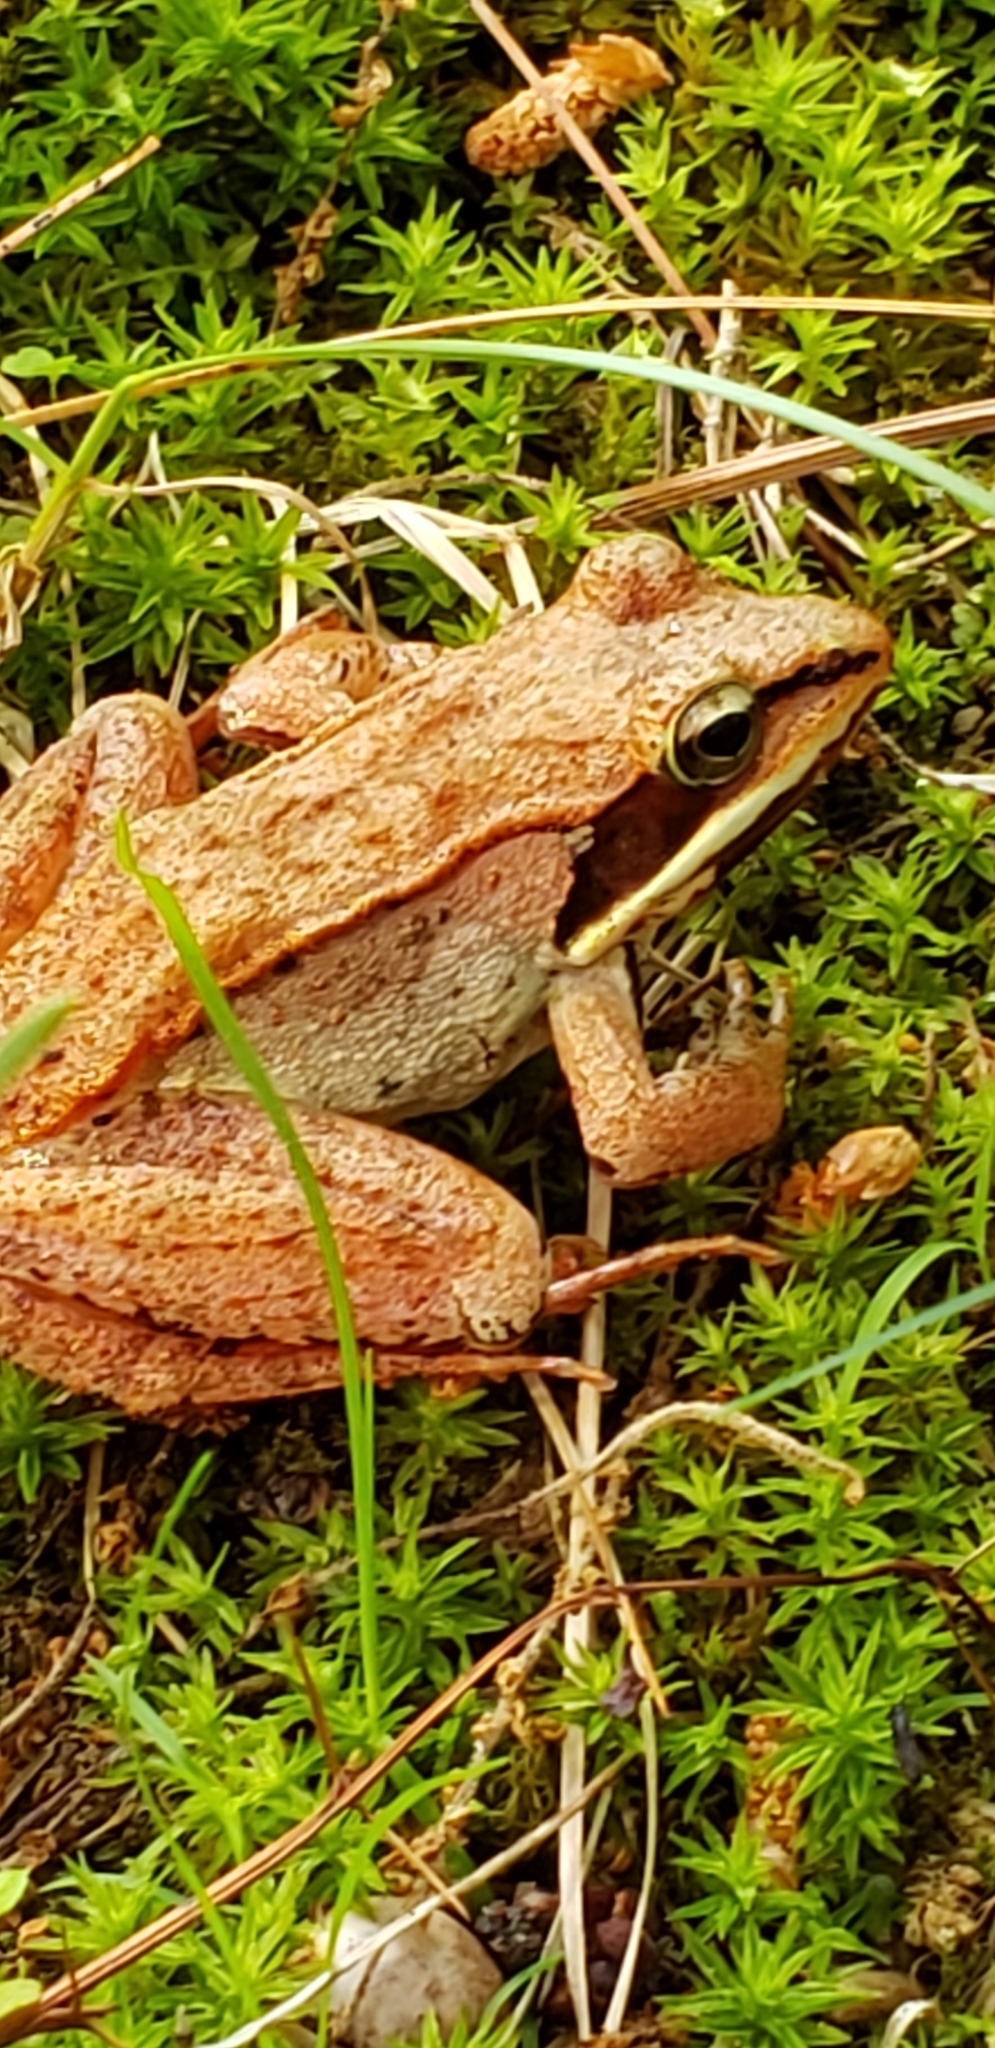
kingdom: Animalia
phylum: Chordata
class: Amphibia
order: Anura
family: Ranidae
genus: Lithobates
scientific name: Lithobates sylvaticus
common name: Wood frog
